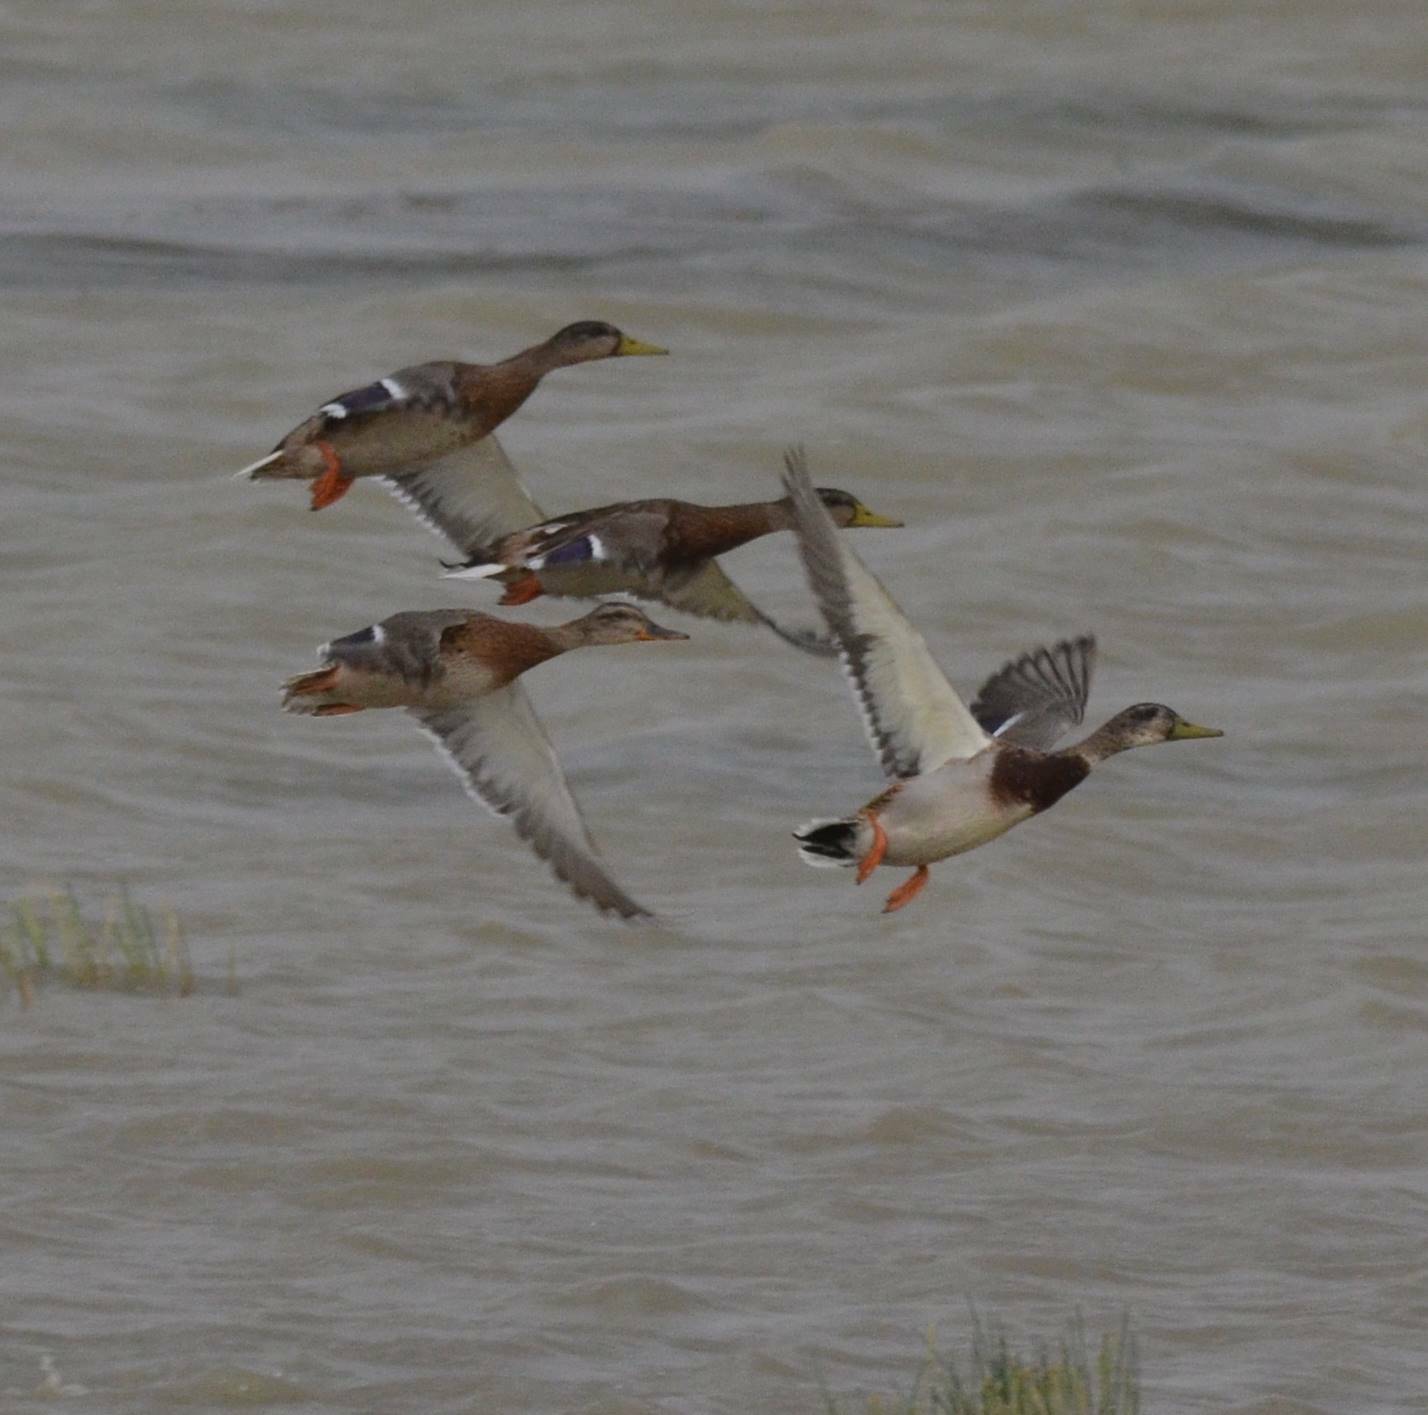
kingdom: Animalia
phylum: Chordata
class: Aves
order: Anseriformes
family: Anatidae
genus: Anas
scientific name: Anas platyrhynchos
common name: Mallard
